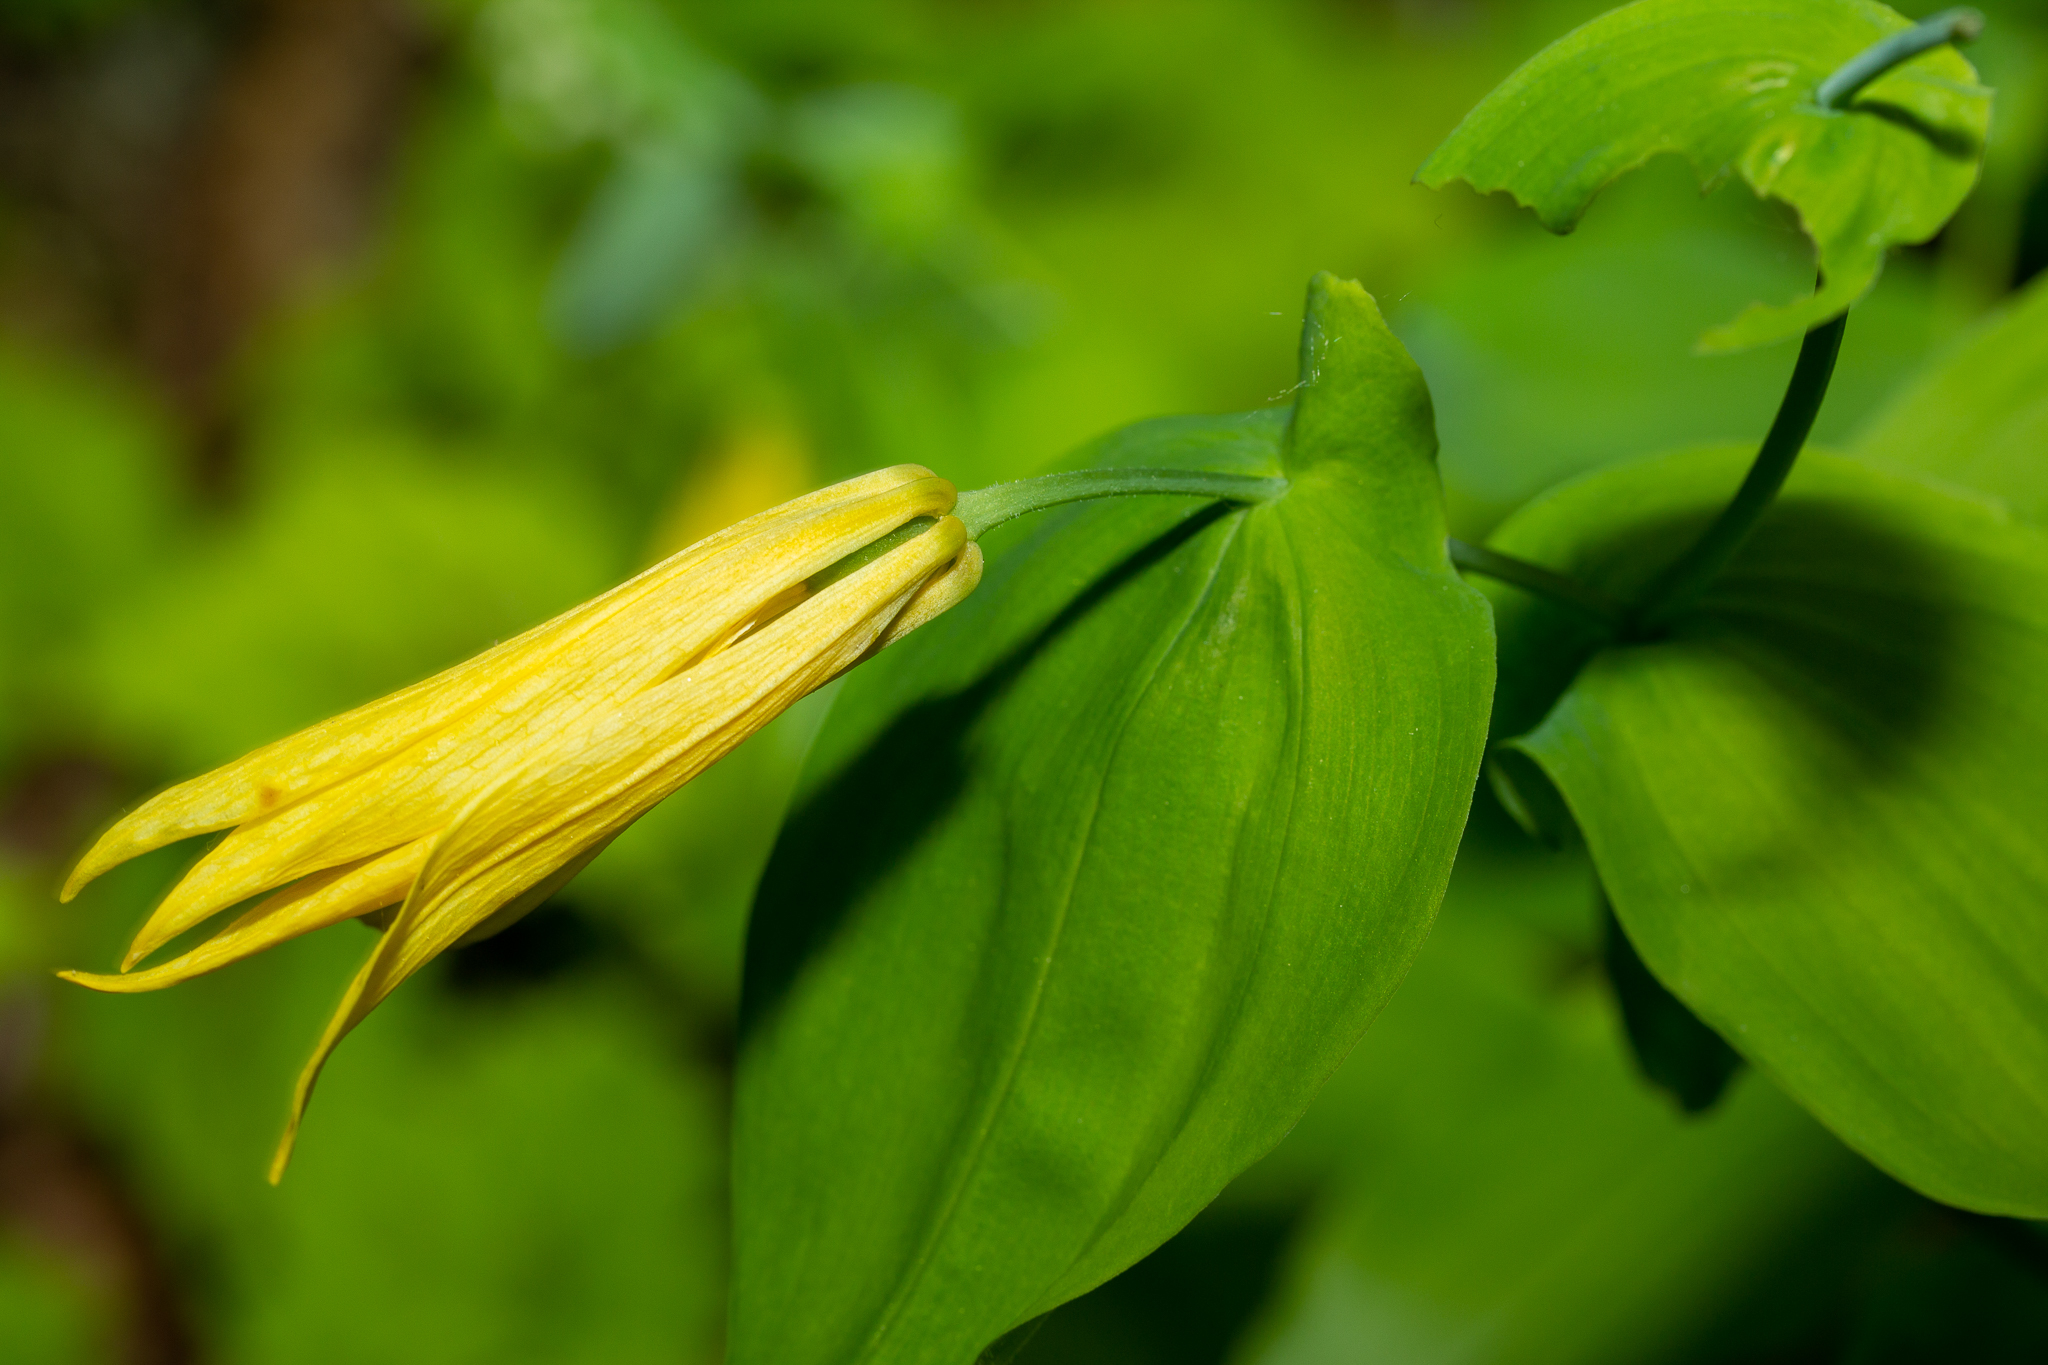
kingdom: Plantae
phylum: Tracheophyta
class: Liliopsida
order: Liliales
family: Colchicaceae
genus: Uvularia
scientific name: Uvularia grandiflora
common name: Bellwort
